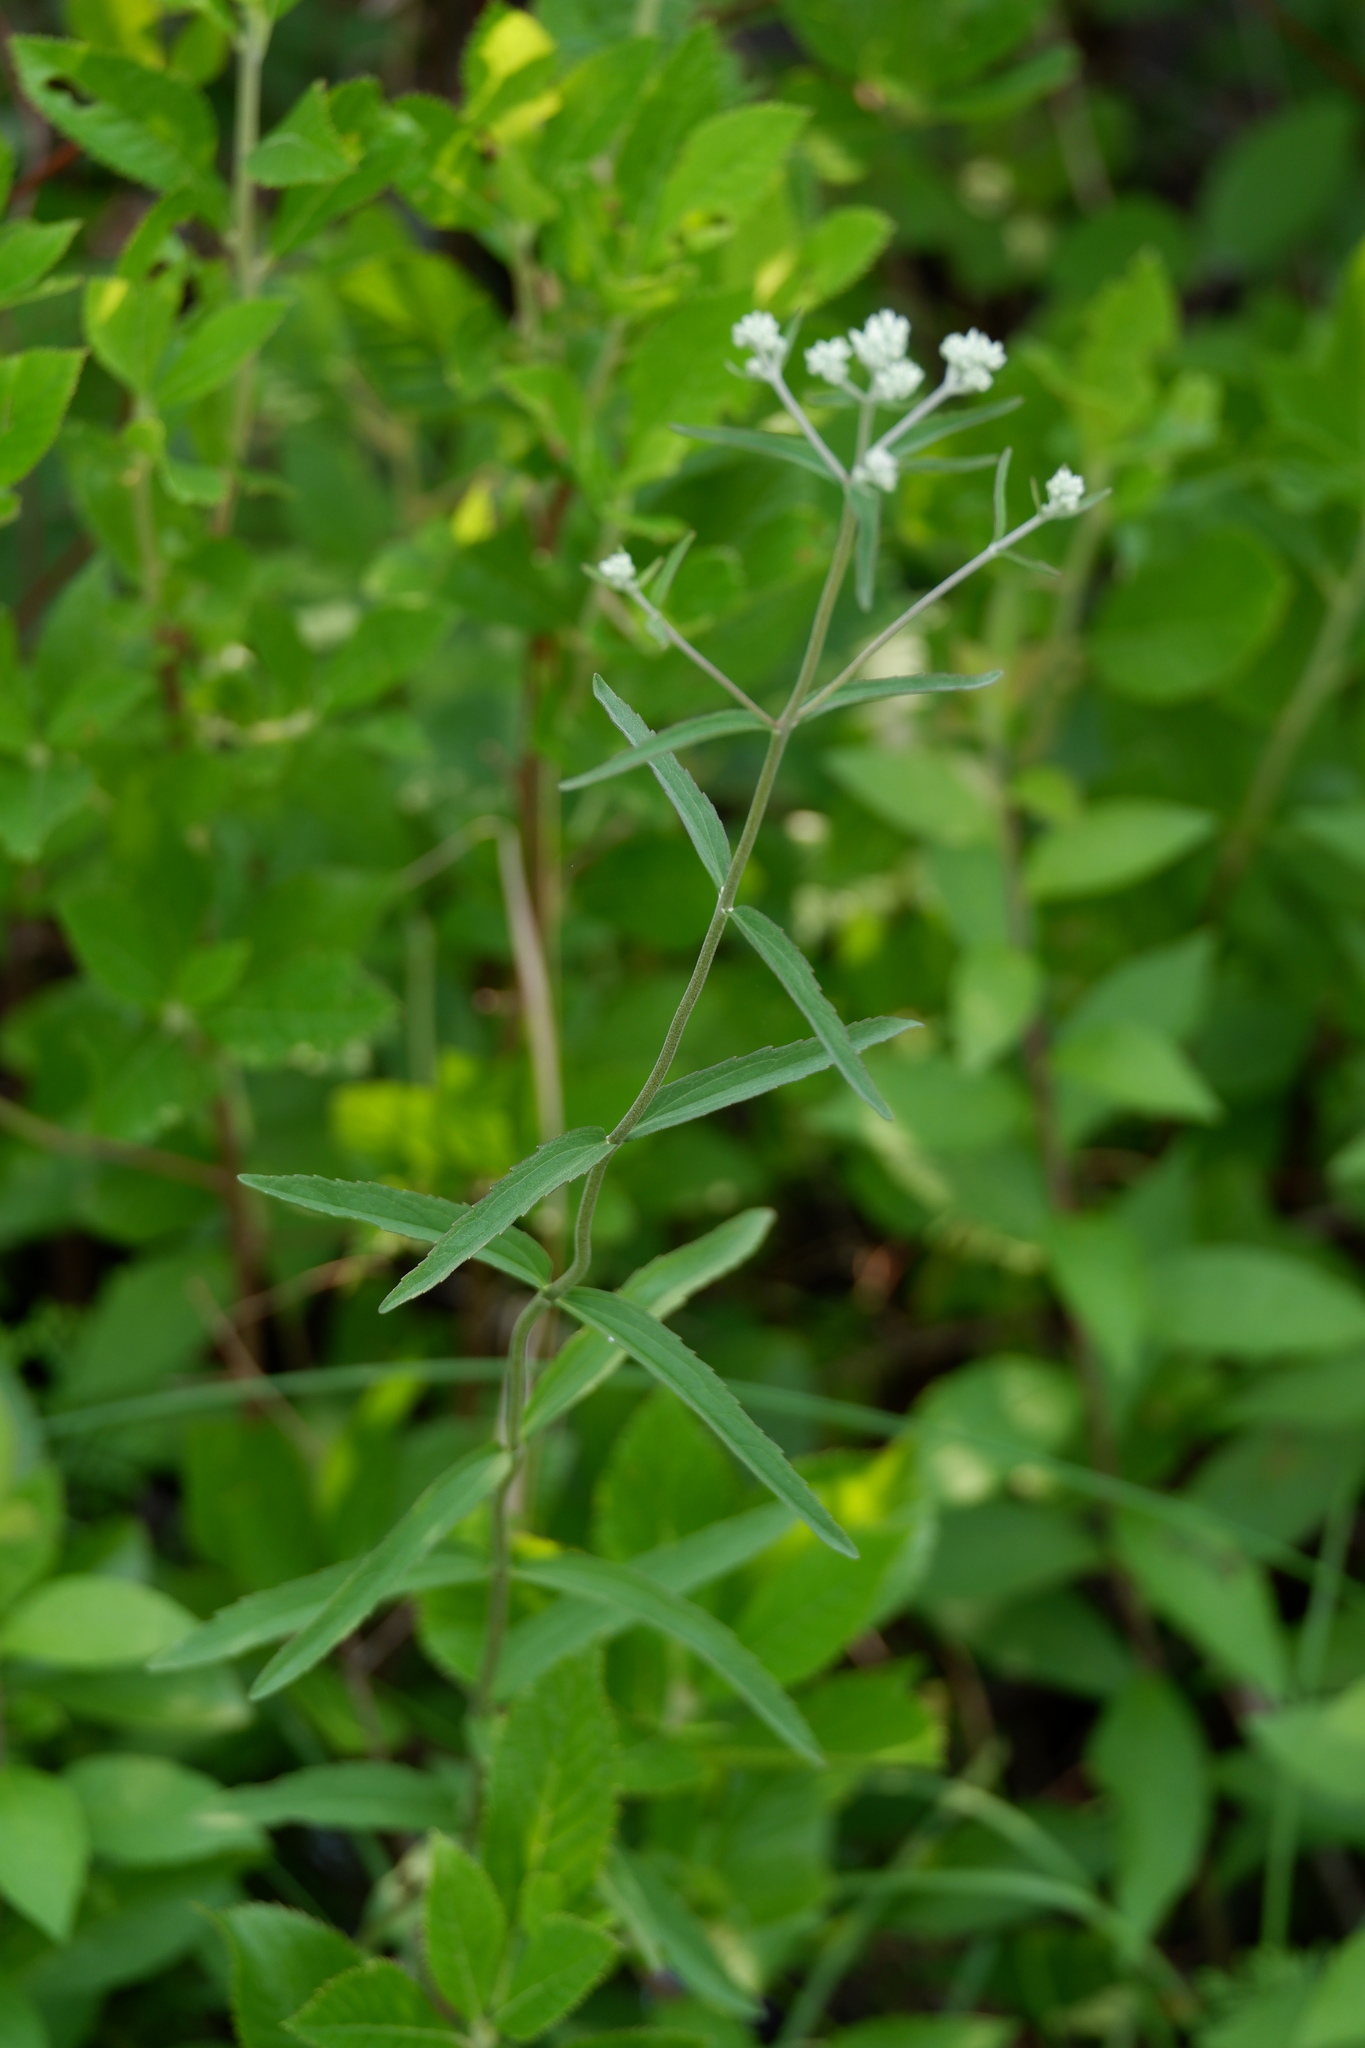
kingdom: Plantae
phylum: Tracheophyta
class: Magnoliopsida
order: Asterales
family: Asteraceae
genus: Eupatorium
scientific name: Eupatorium leucolepis
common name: Justiceweed
